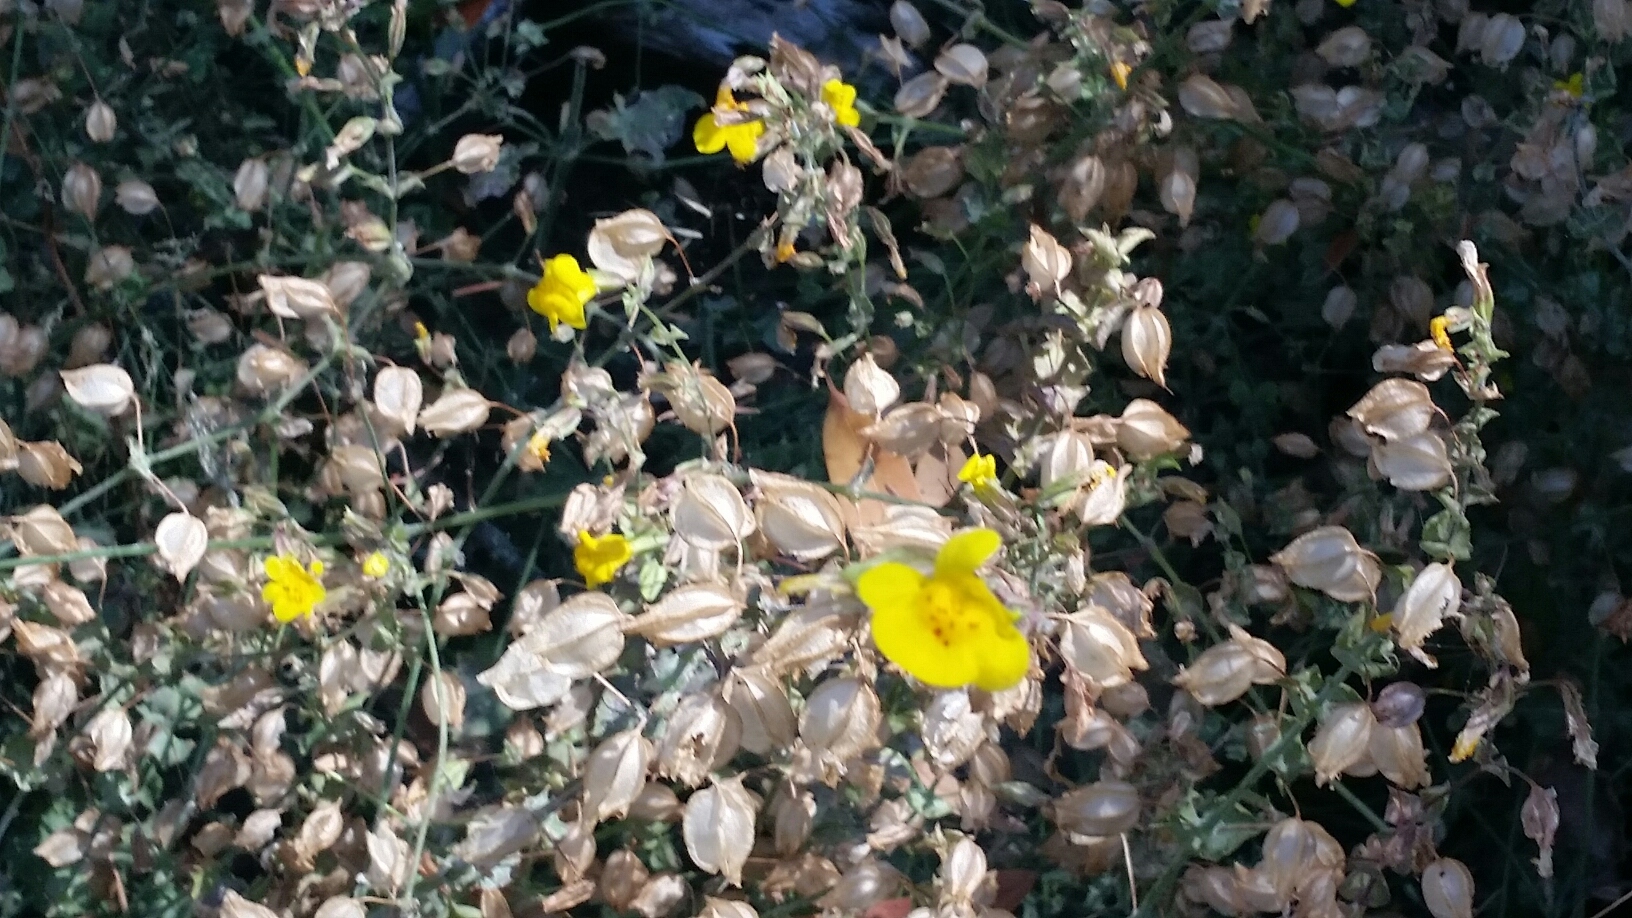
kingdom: Plantae
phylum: Tracheophyta
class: Magnoliopsida
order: Lamiales
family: Phrymaceae
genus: Erythranthe
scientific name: Erythranthe guttata
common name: Monkeyflower
